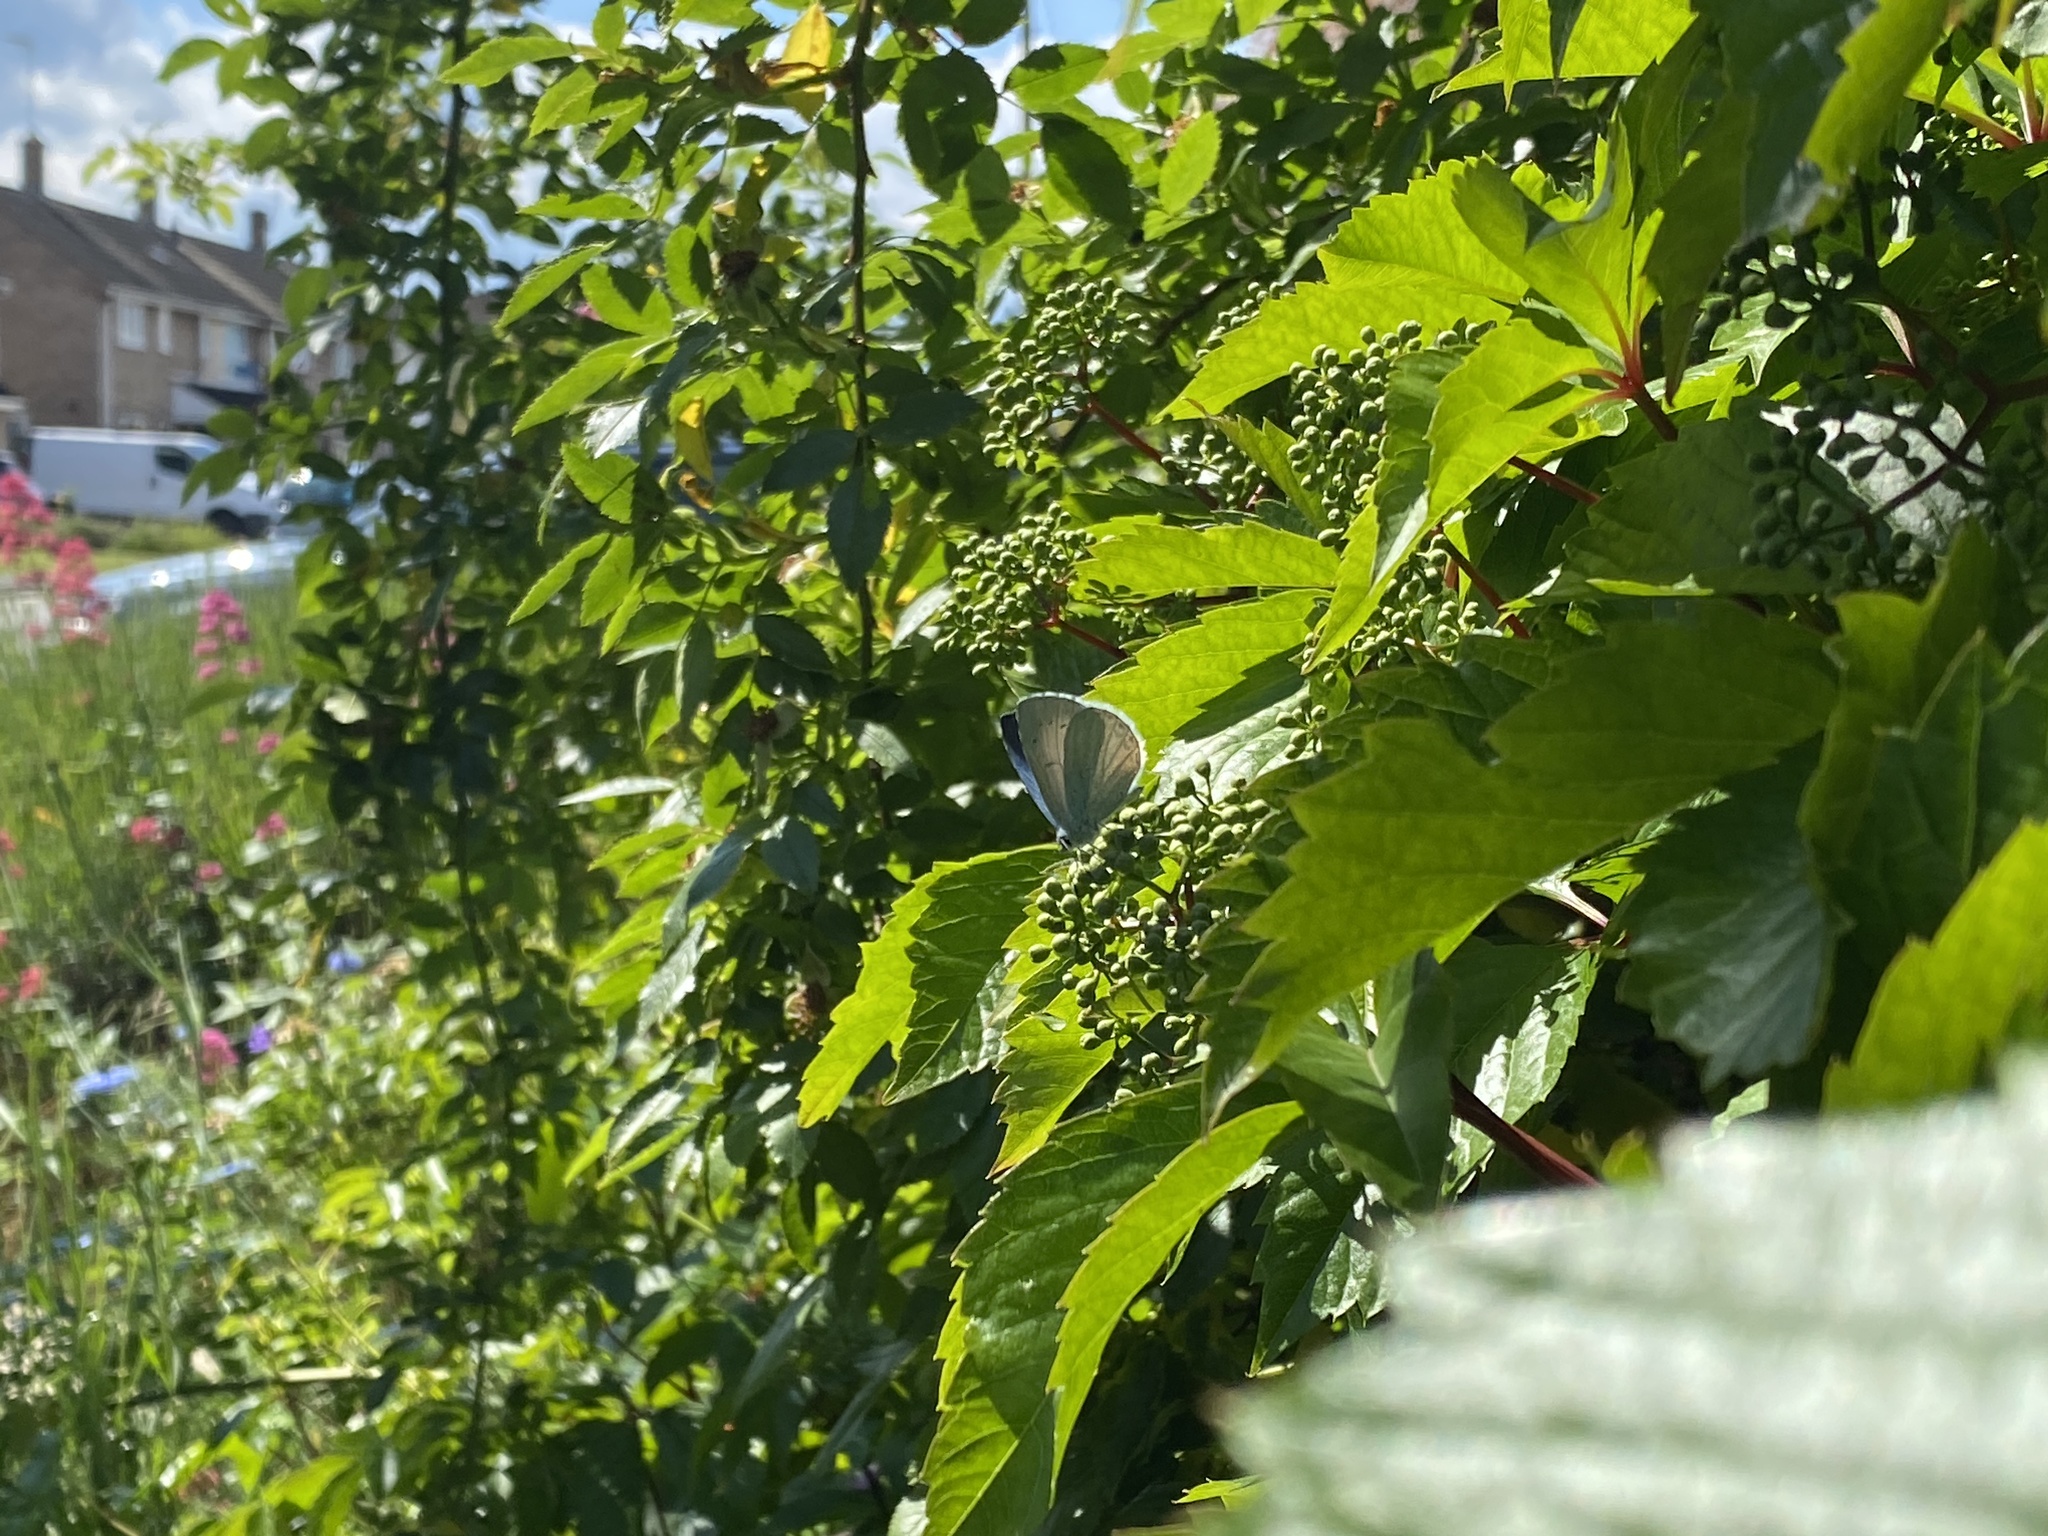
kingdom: Animalia
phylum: Arthropoda
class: Insecta
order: Lepidoptera
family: Lycaenidae
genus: Celastrina
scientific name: Celastrina argiolus
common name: Holly blue
